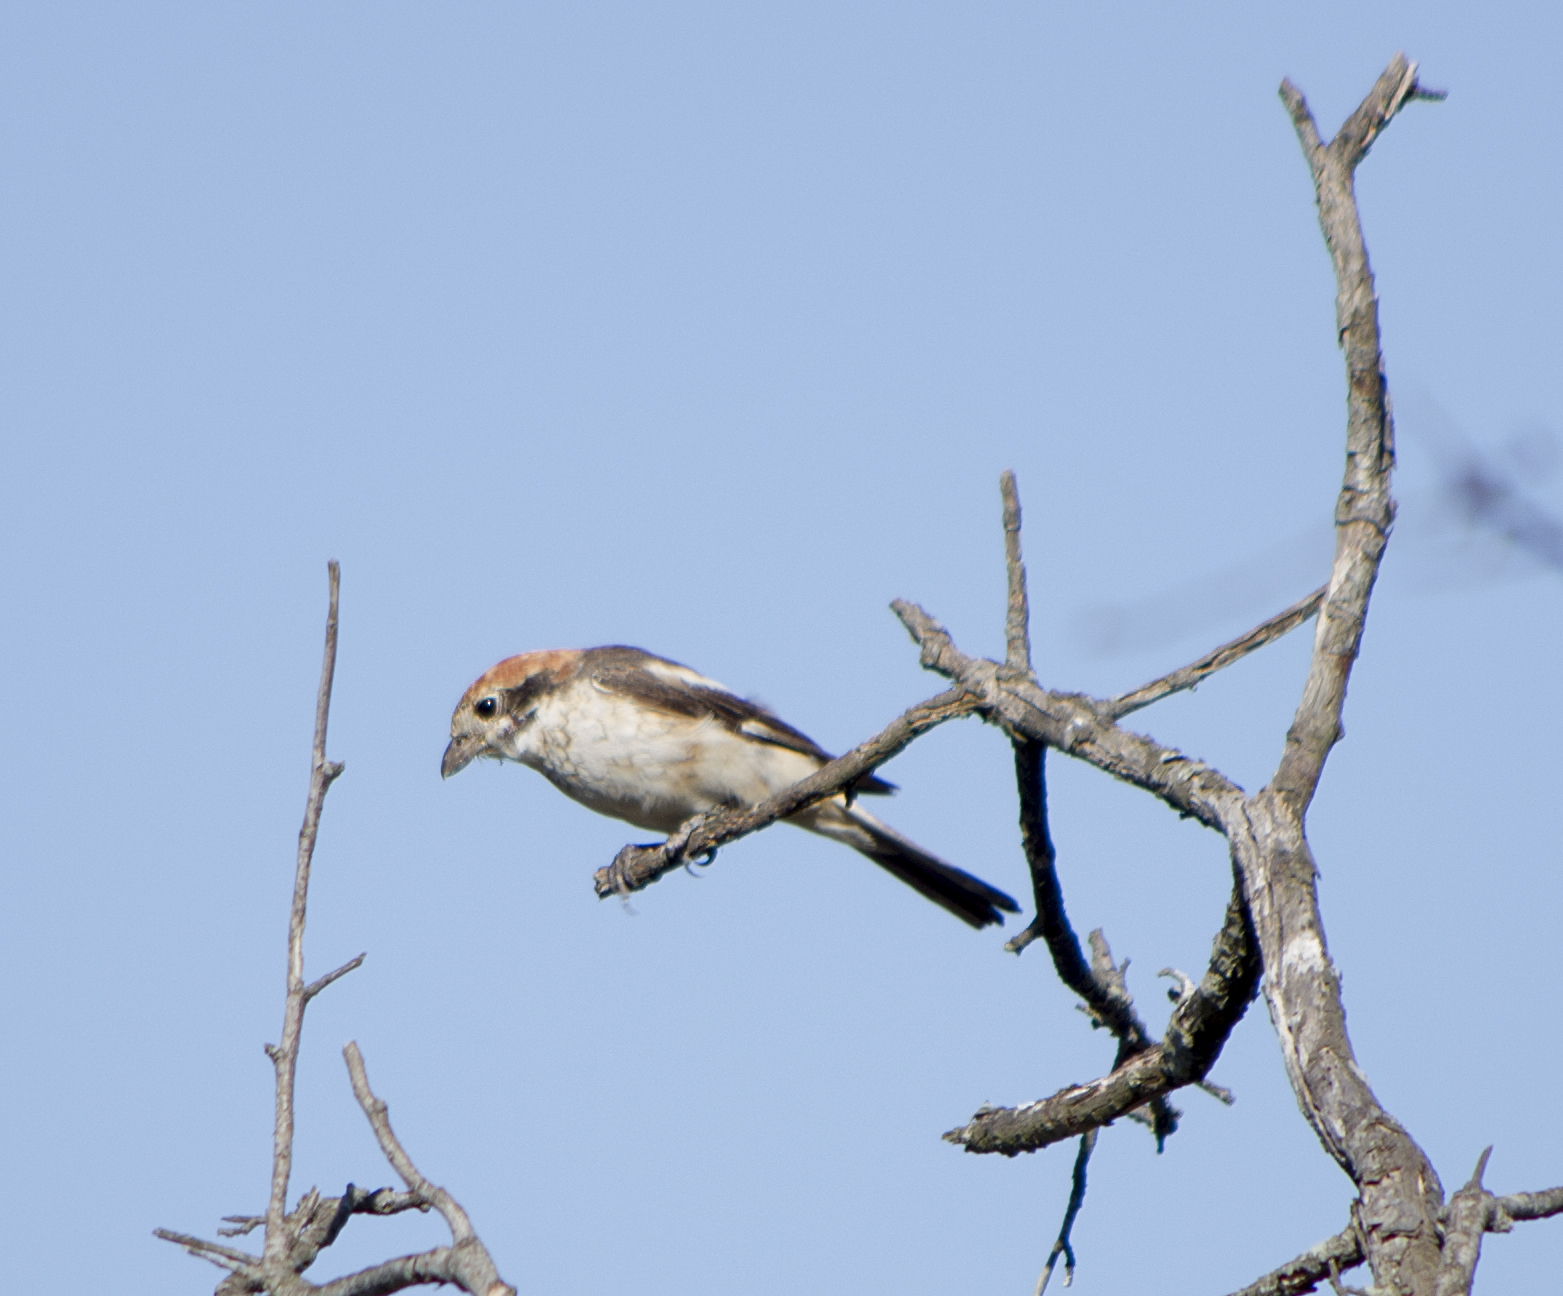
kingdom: Animalia
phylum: Chordata
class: Aves
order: Passeriformes
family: Laniidae
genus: Lanius
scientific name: Lanius senator
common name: Woodchat shrike
